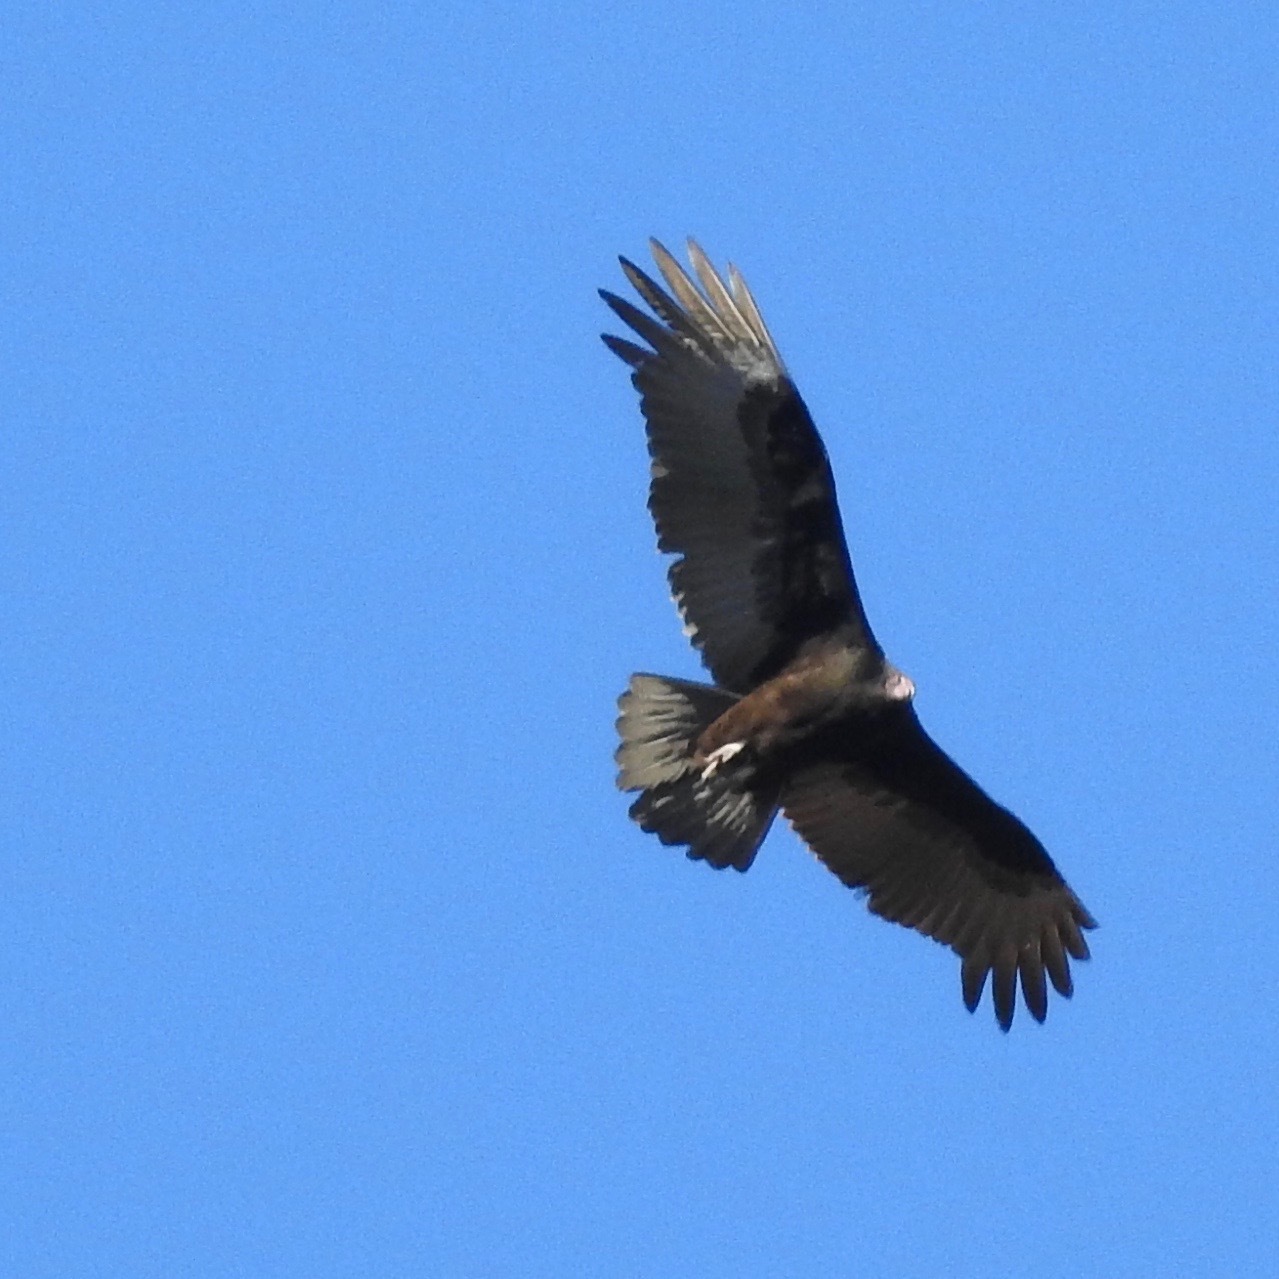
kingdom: Animalia
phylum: Chordata
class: Aves
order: Accipitriformes
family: Cathartidae
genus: Cathartes
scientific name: Cathartes aura
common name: Turkey vulture
